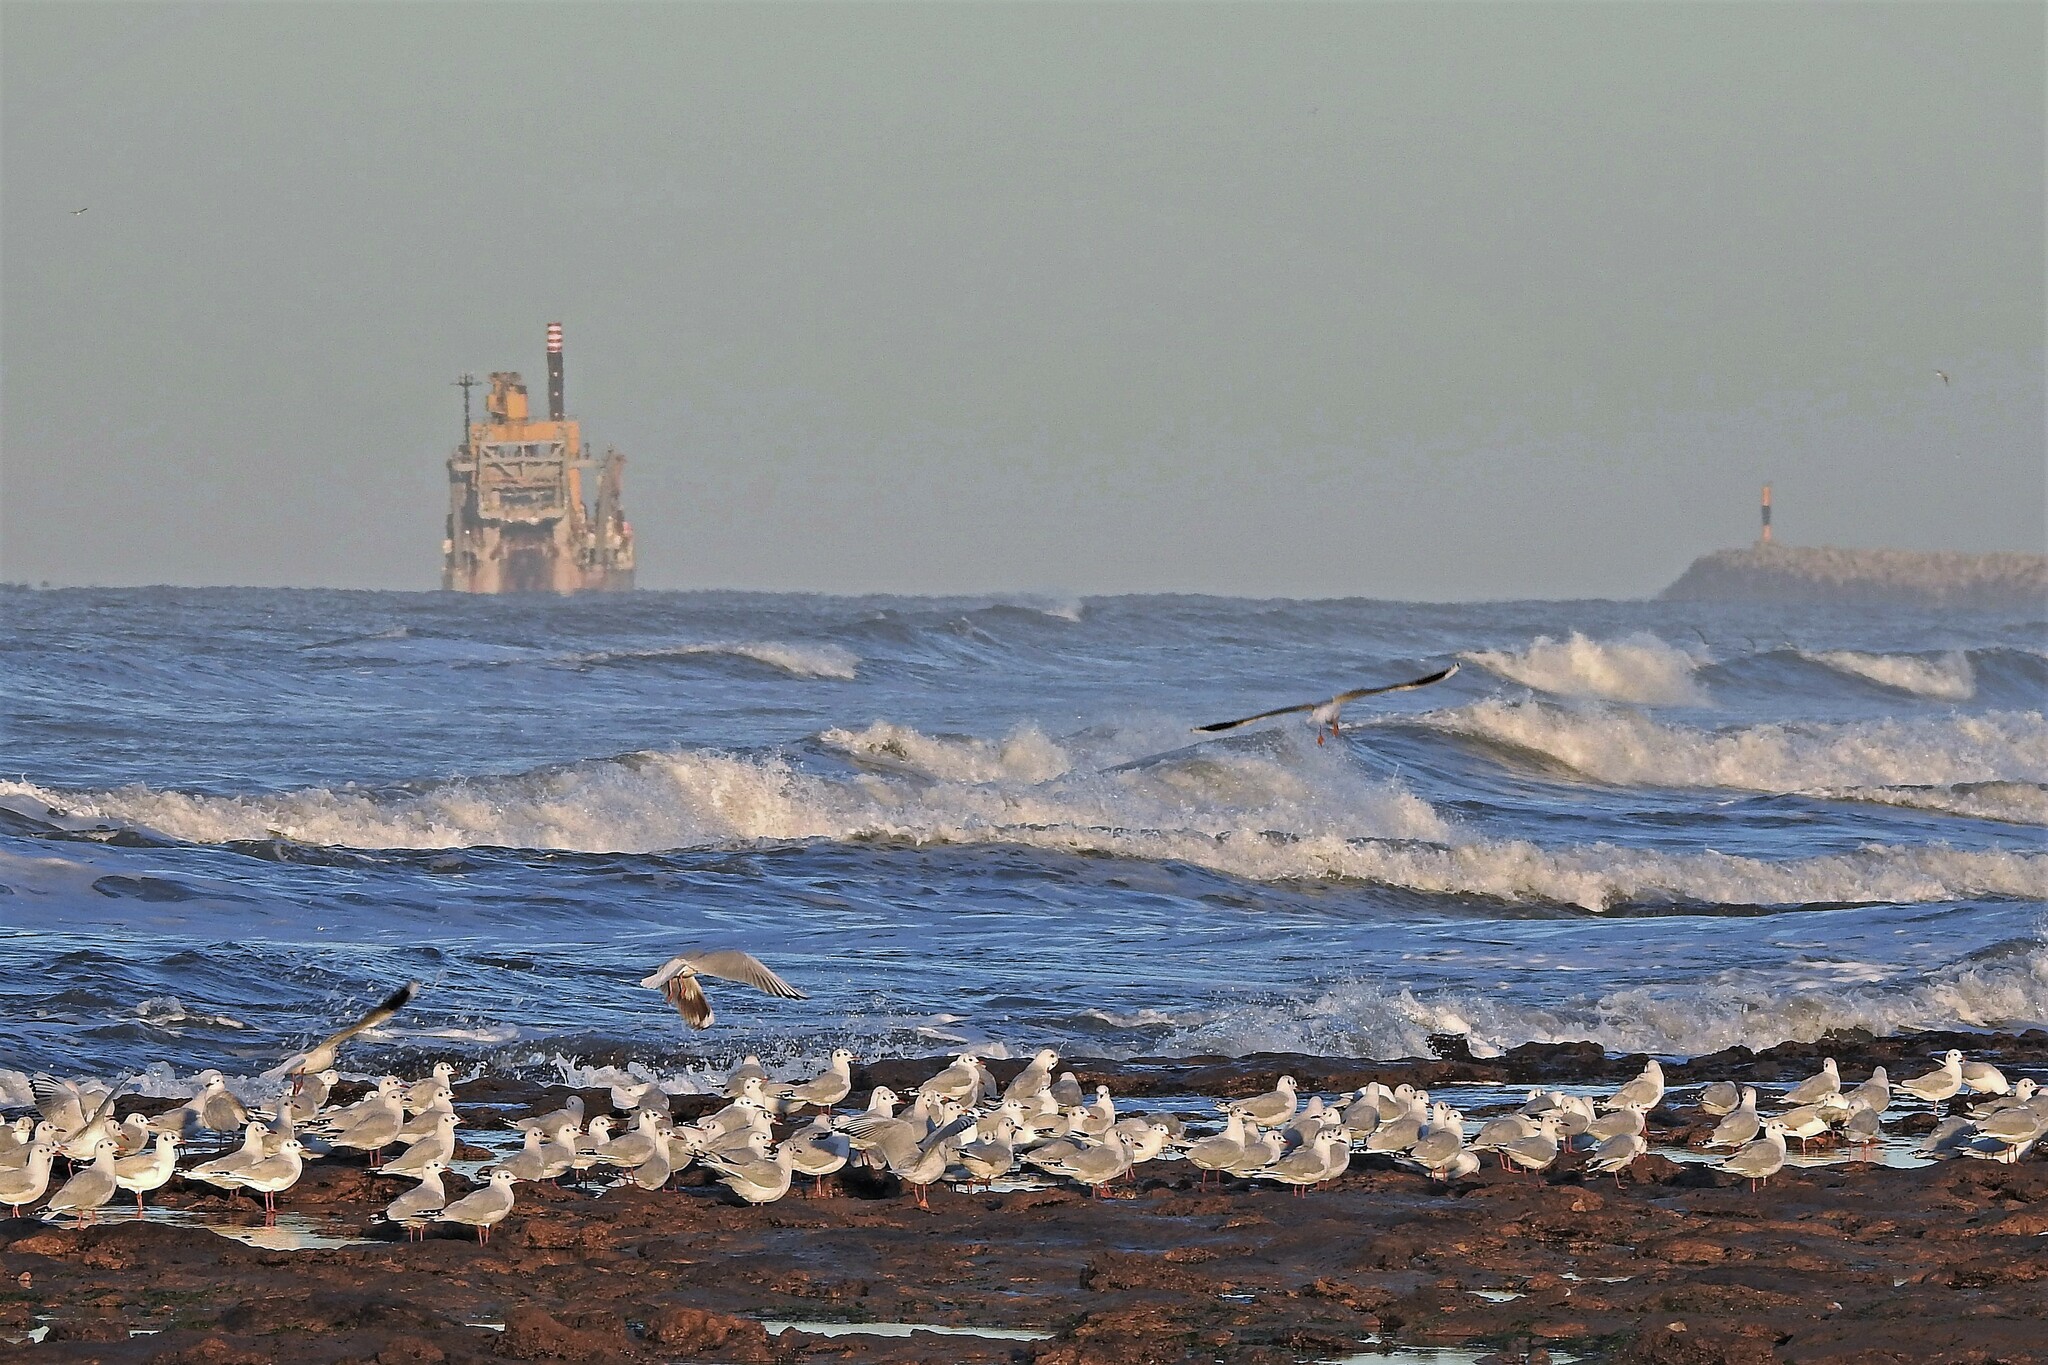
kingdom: Animalia
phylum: Chordata
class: Aves
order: Charadriiformes
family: Laridae
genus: Chroicocephalus
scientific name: Chroicocephalus maculipennis
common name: Brown-hooded gull
